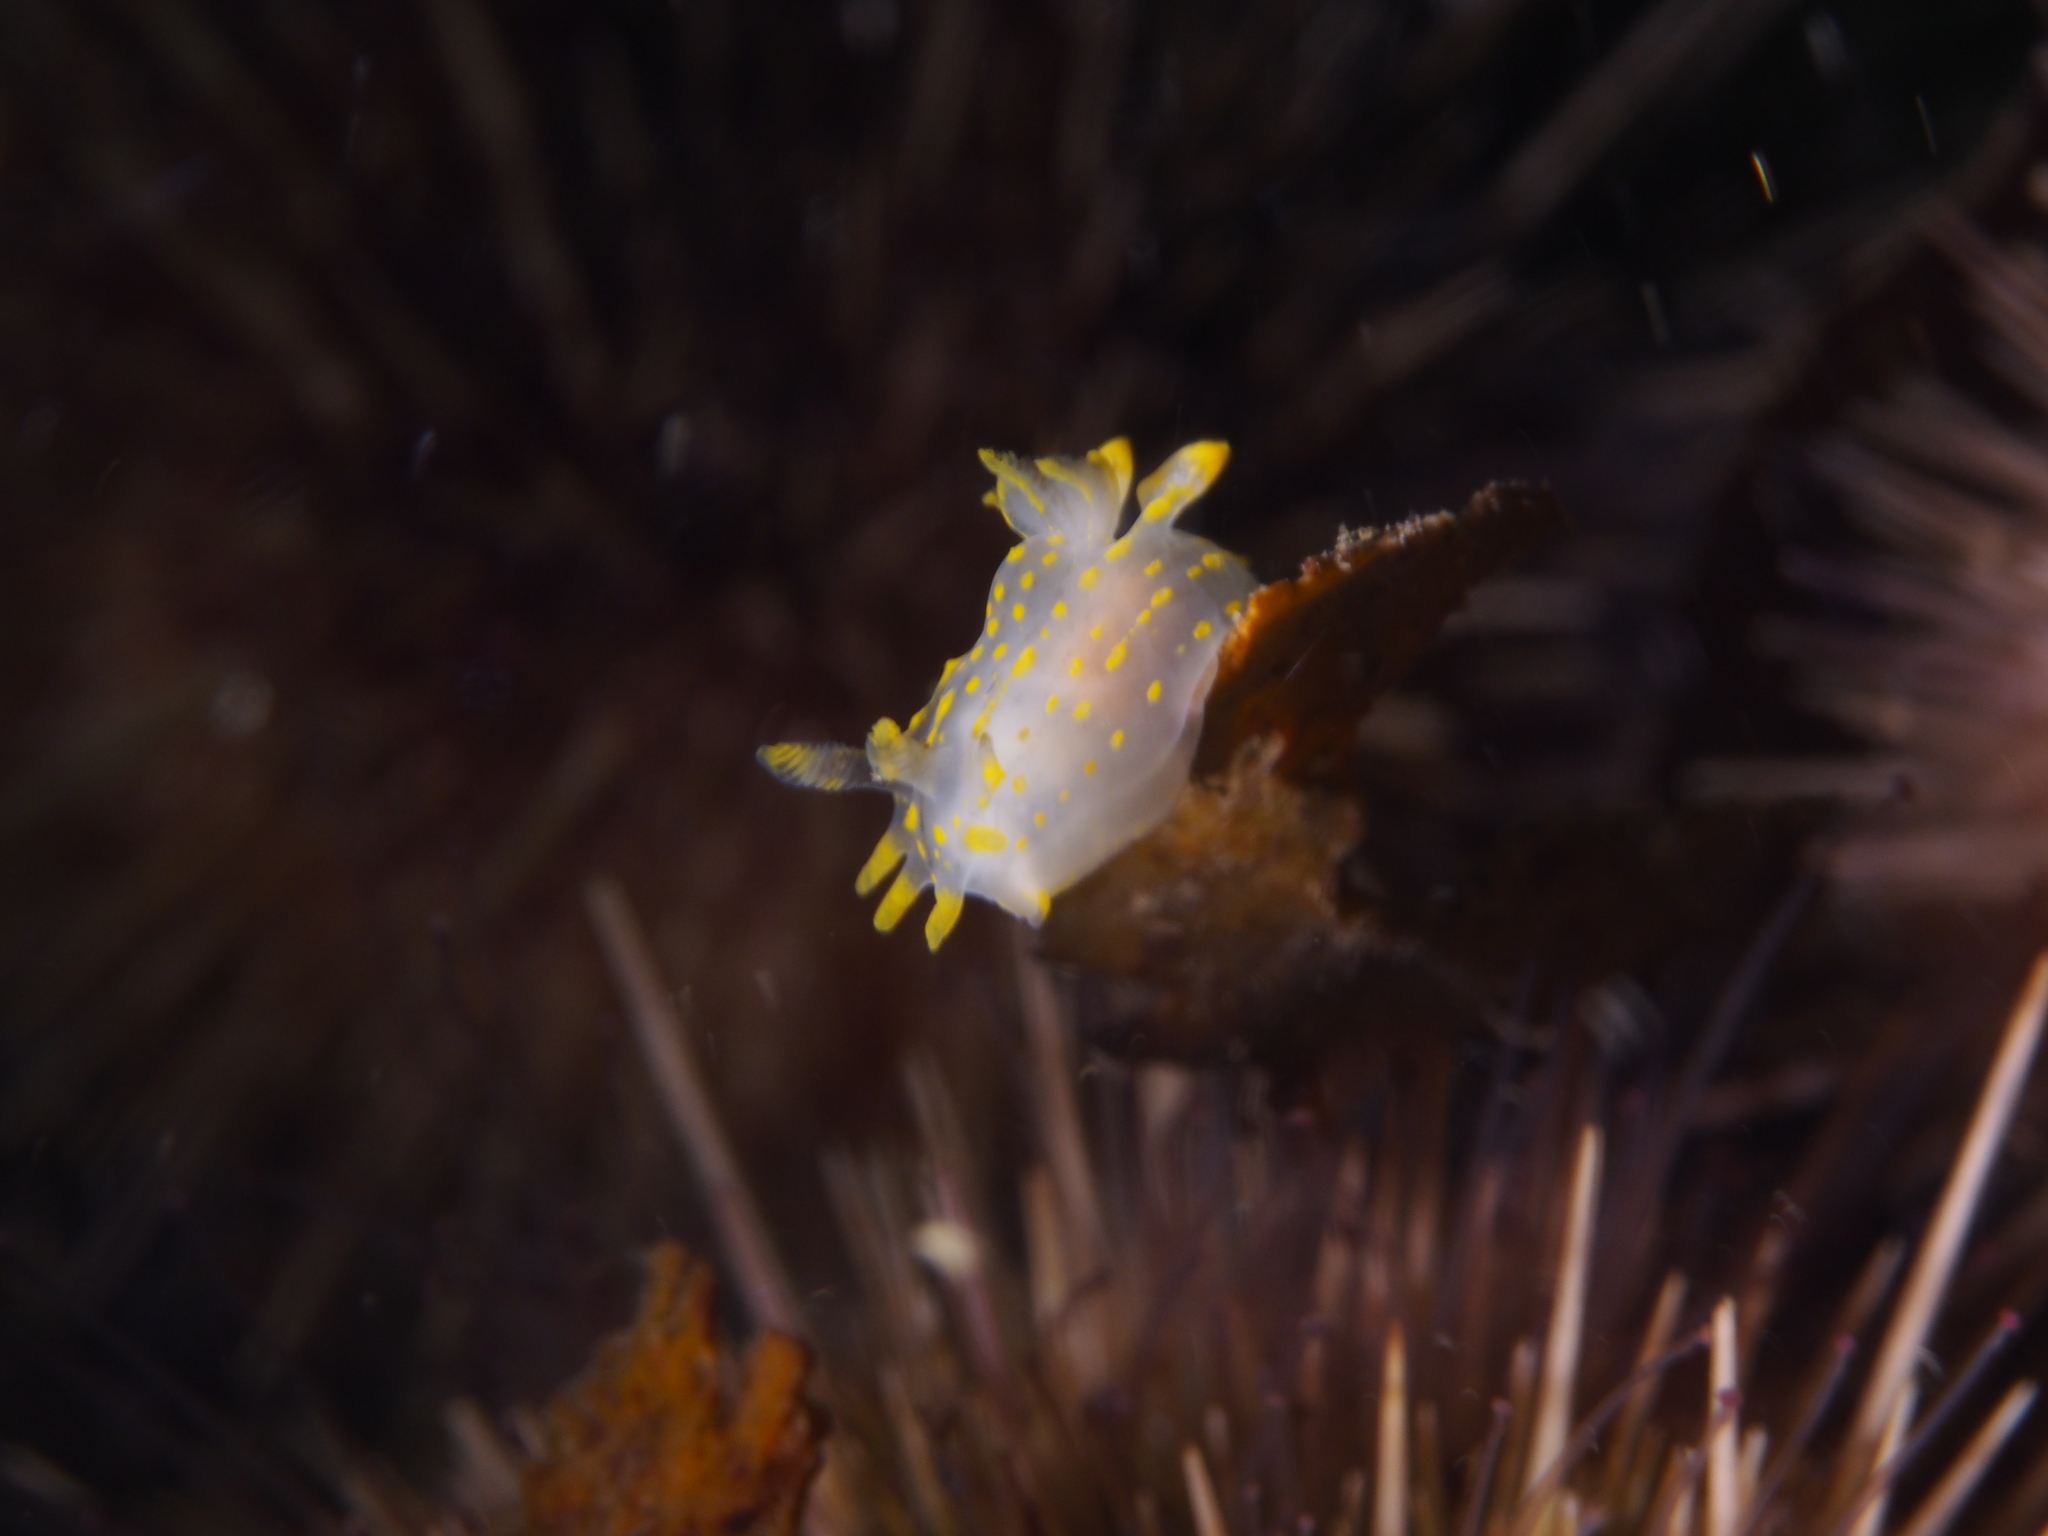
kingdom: Animalia
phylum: Mollusca
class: Gastropoda
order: Nudibranchia
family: Polyceridae
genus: Polycera
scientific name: Polycera quadrilineata
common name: Four-striped polycera
